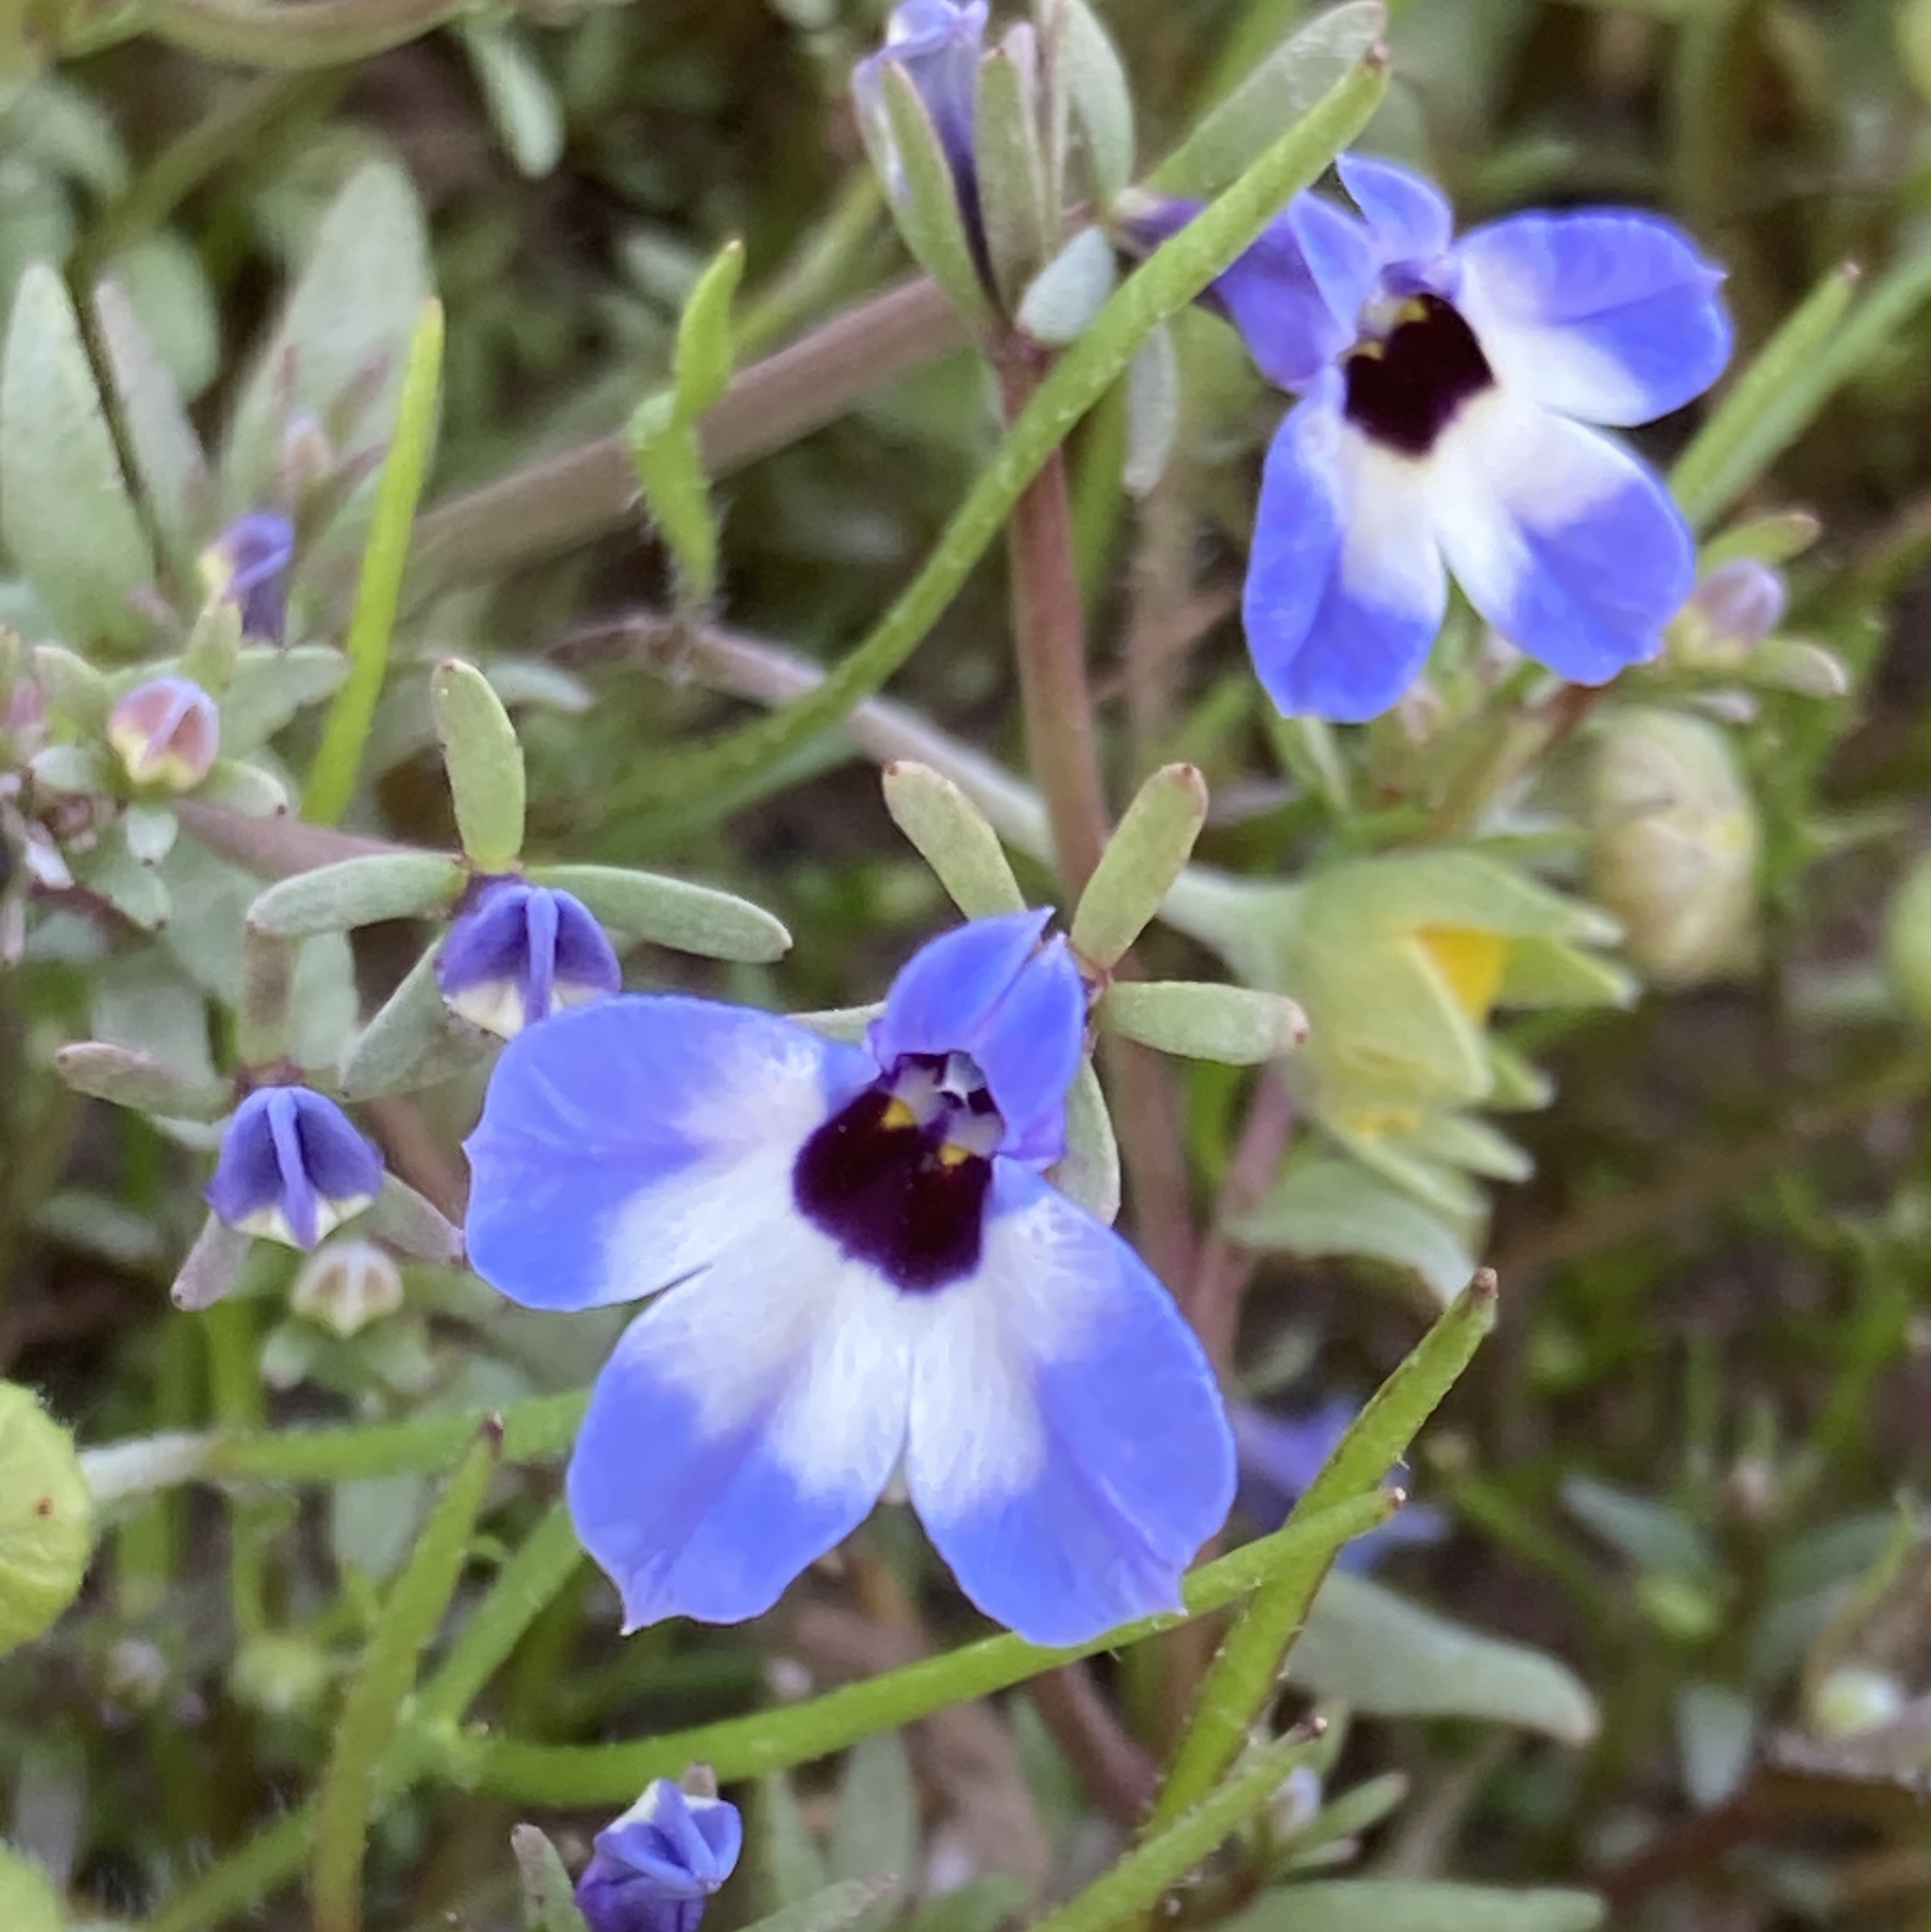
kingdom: Plantae
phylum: Tracheophyta
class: Magnoliopsida
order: Asterales
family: Campanulaceae
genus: Downingia
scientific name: Downingia concolor
